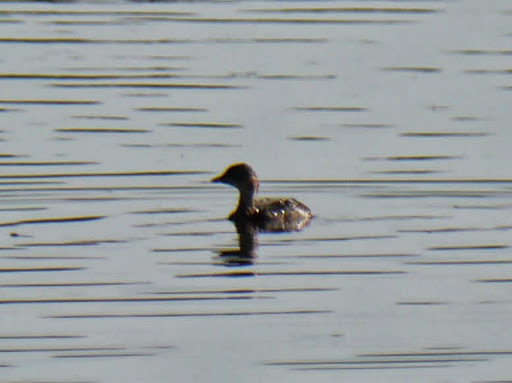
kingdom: Animalia
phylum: Chordata
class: Aves
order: Podicipediformes
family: Podicipedidae
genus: Tachybaptus
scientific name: Tachybaptus ruficollis
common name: Little grebe
